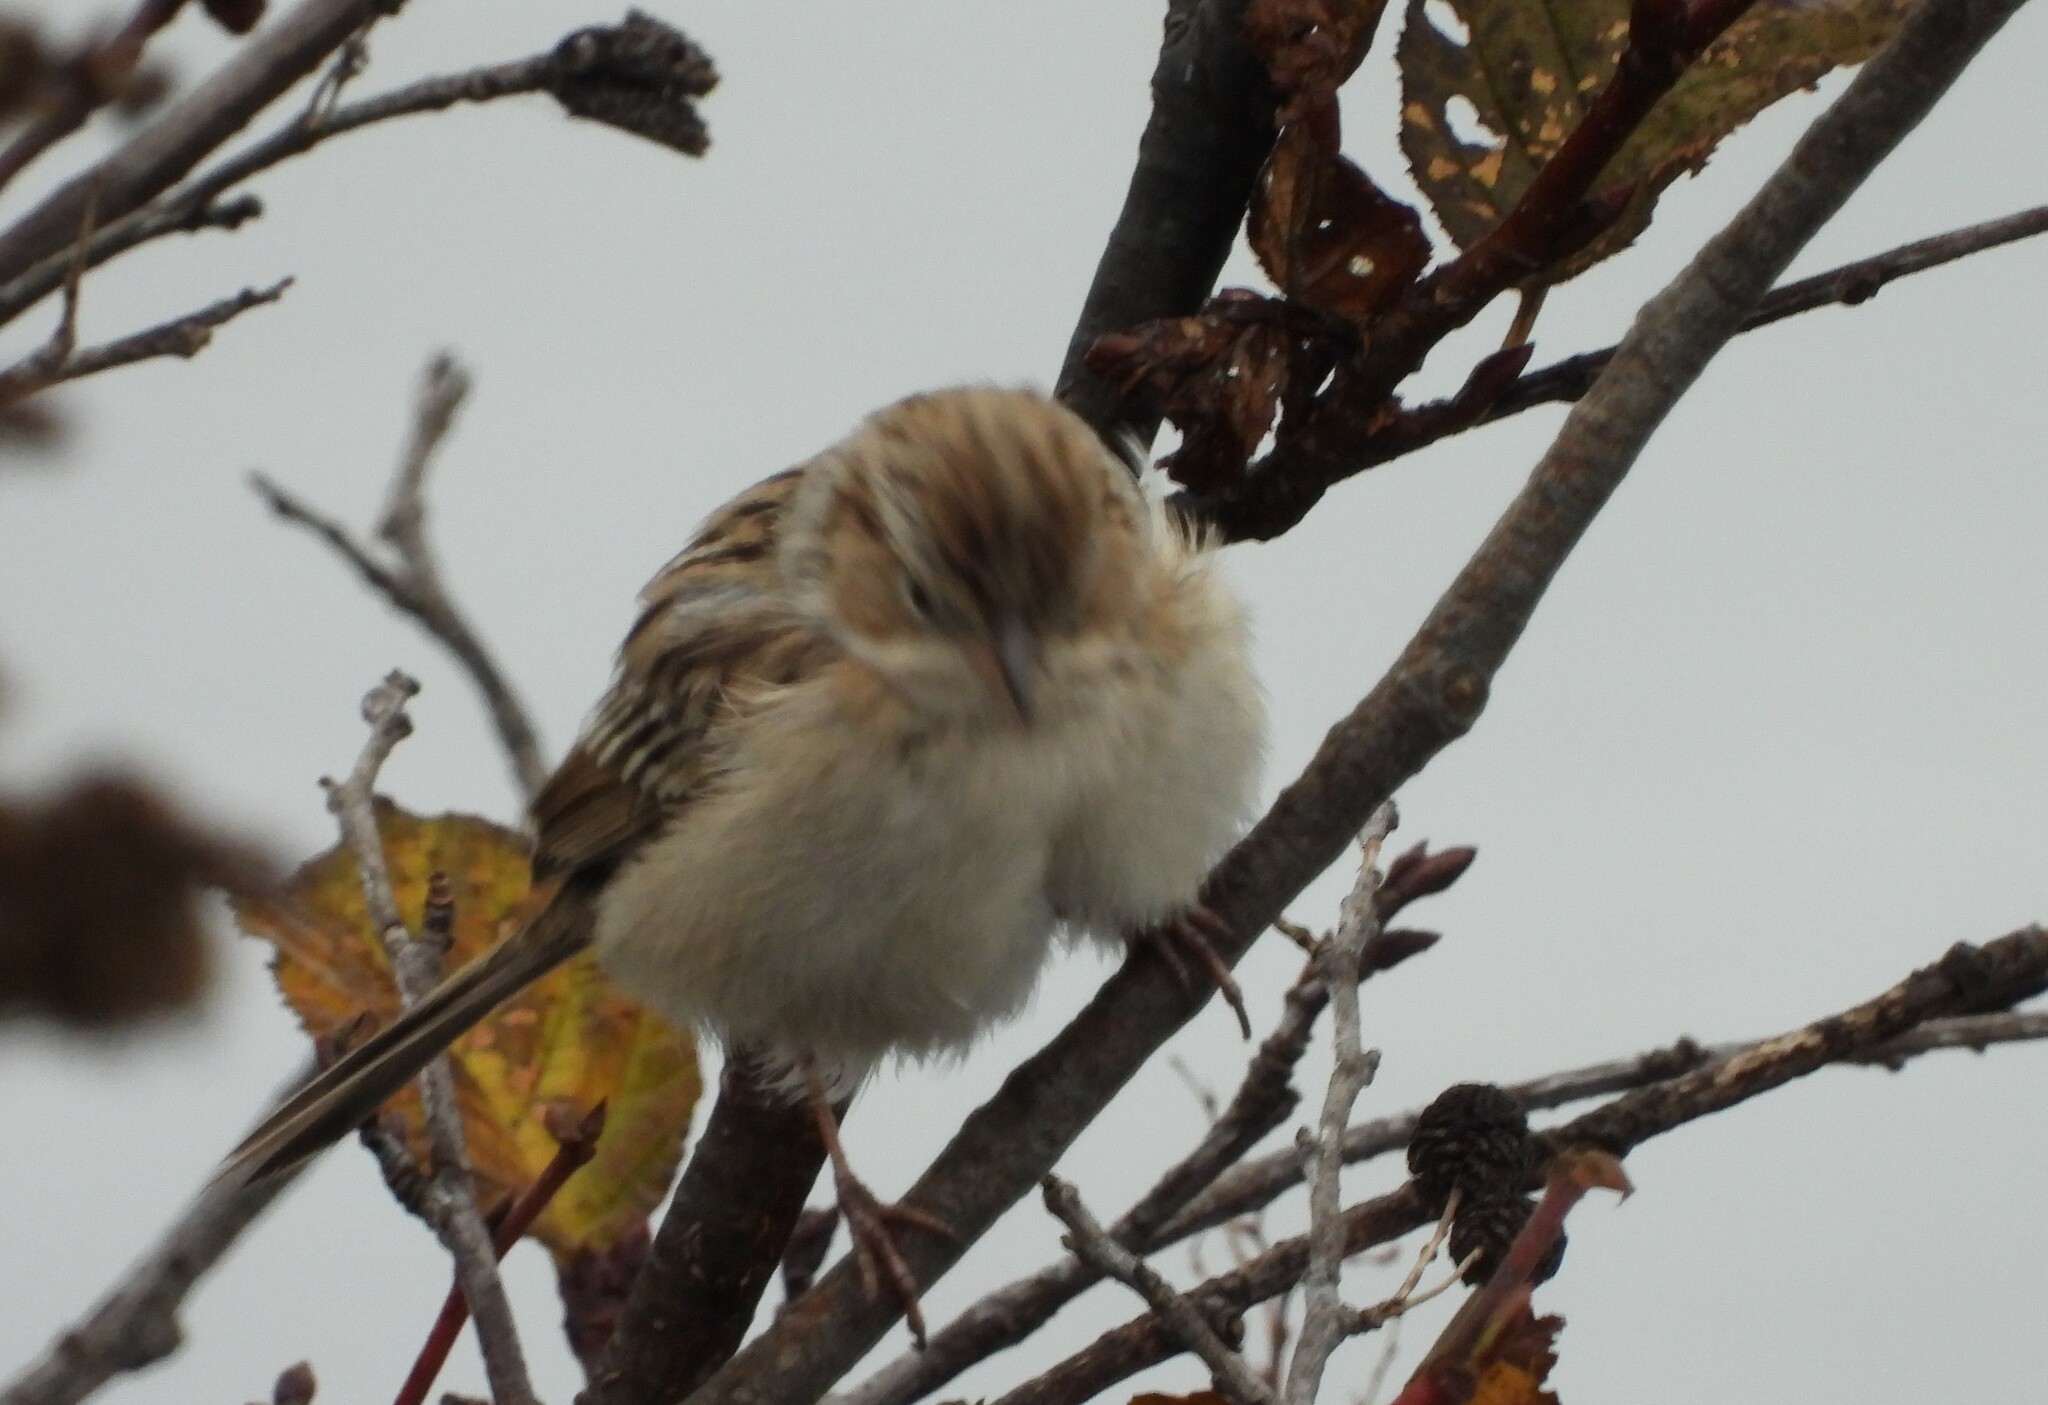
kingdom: Animalia
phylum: Chordata
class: Aves
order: Passeriformes
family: Passerellidae
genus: Spizella
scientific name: Spizella breweri
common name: Brewer's sparrow
